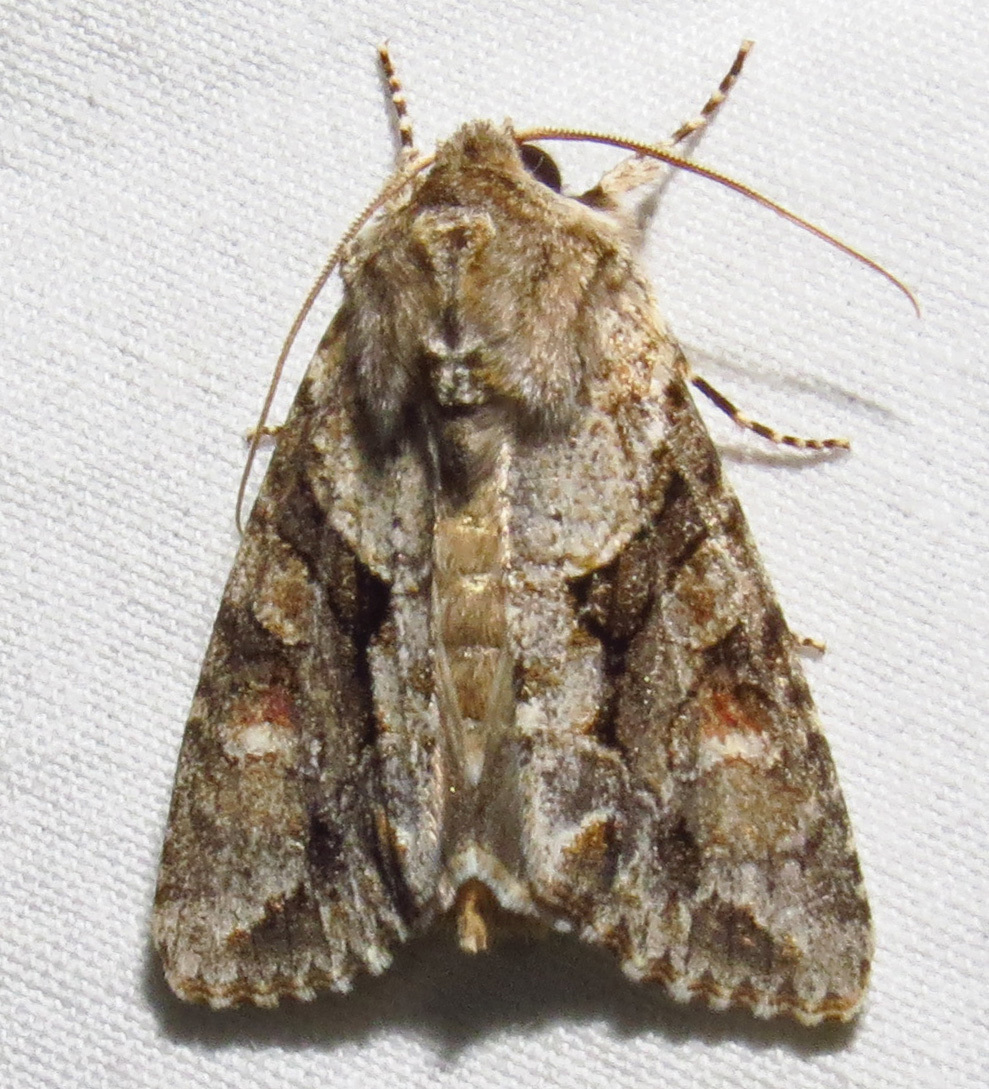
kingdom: Animalia
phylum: Arthropoda
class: Insecta
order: Lepidoptera
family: Noctuidae
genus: Achatia
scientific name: Achatia distincta
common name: Distinct quaker
